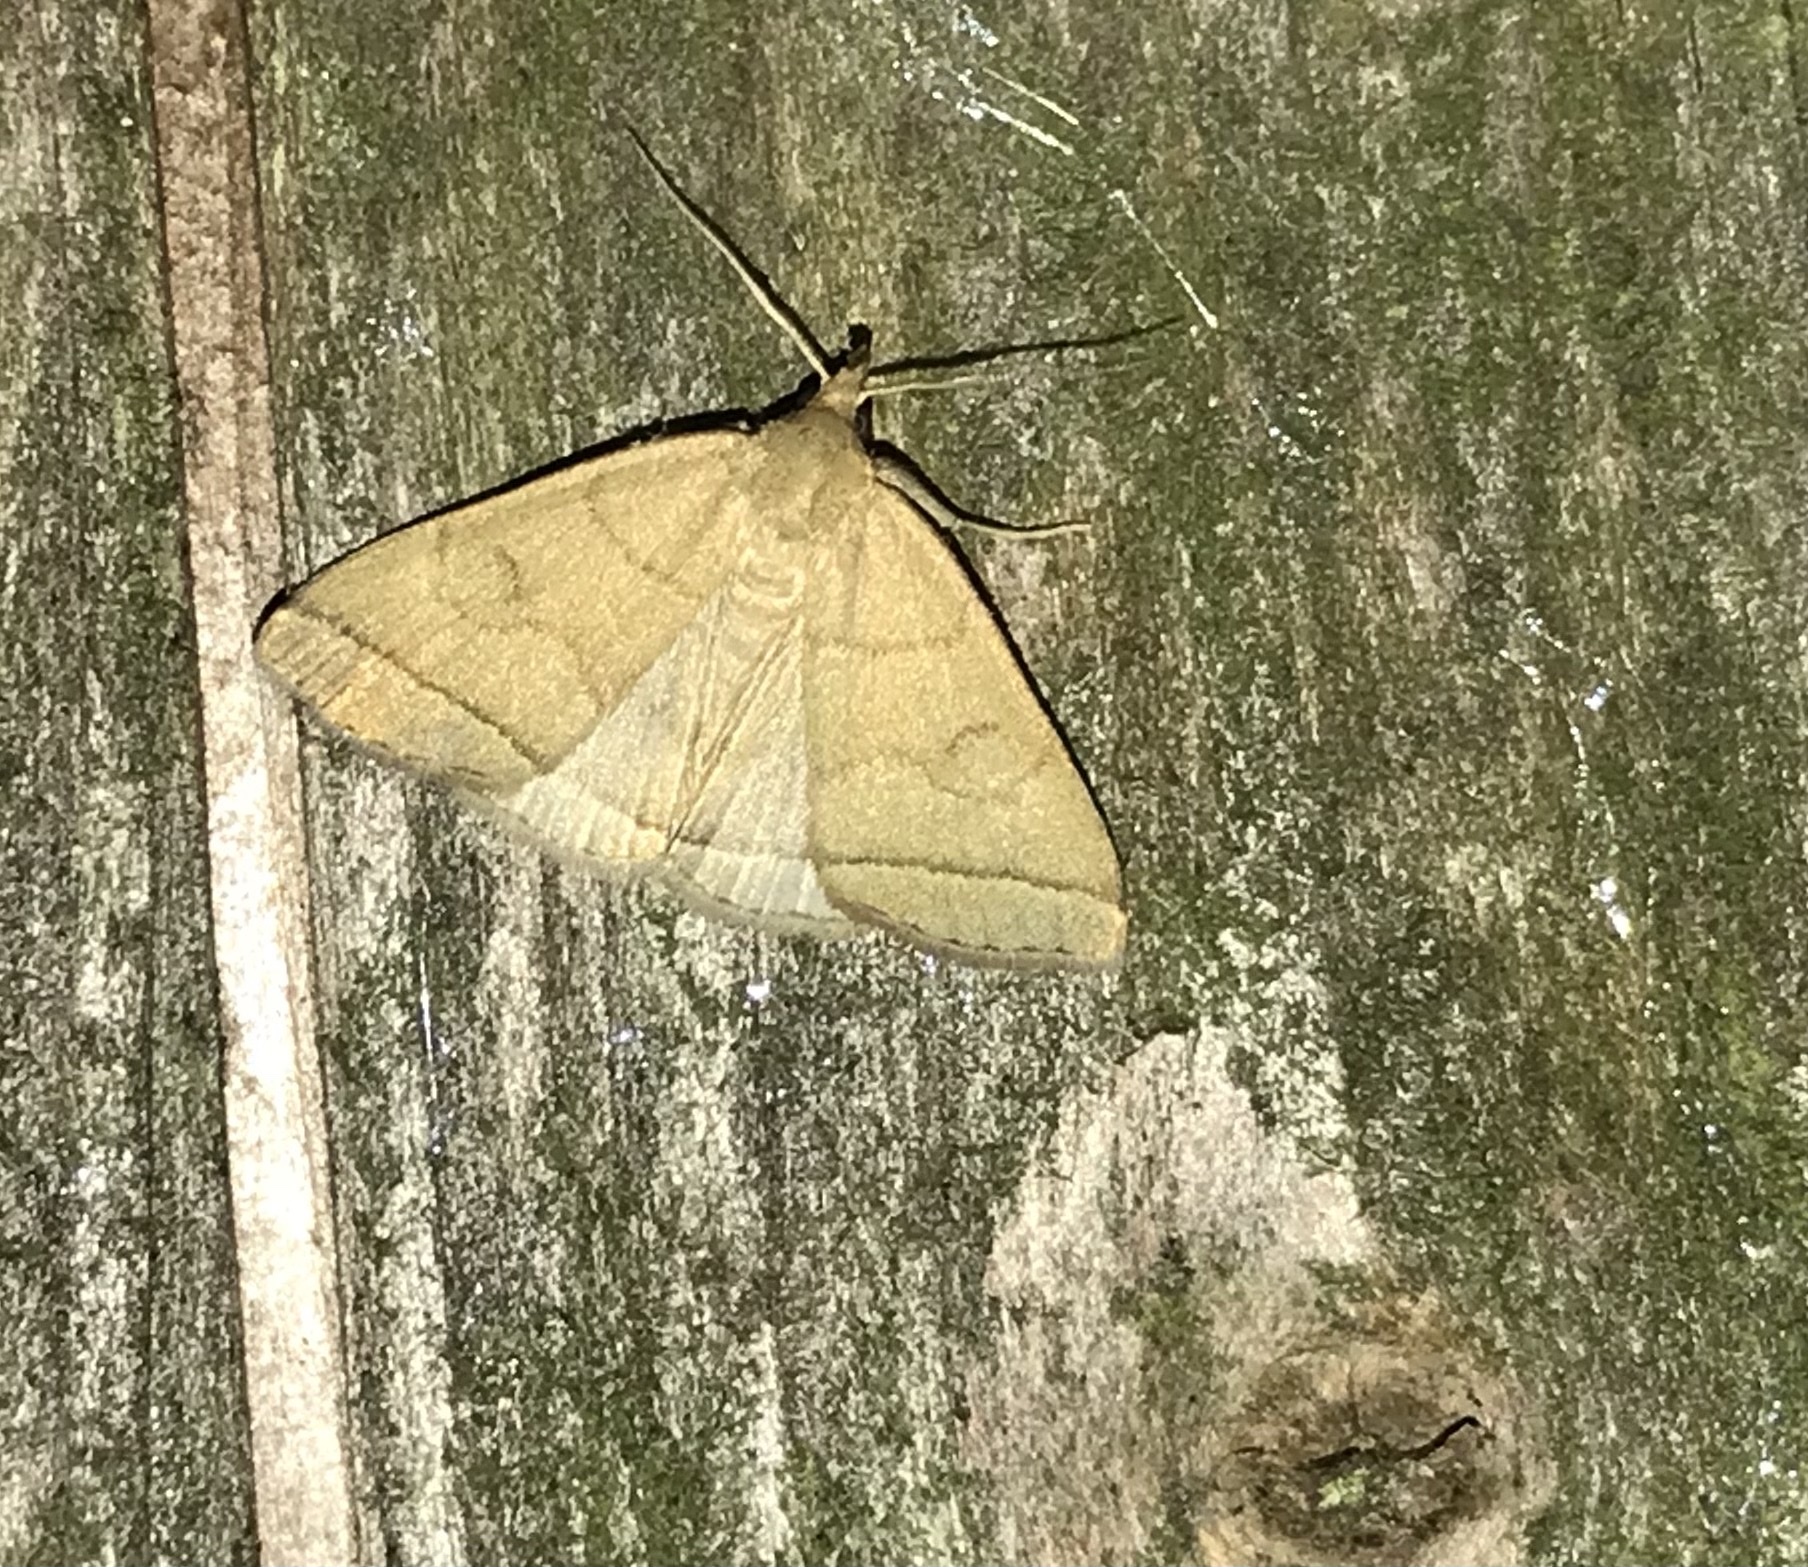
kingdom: Animalia
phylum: Arthropoda
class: Insecta
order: Lepidoptera
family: Erebidae
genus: Herminia
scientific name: Herminia tarsipennalis
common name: Fan-foot
